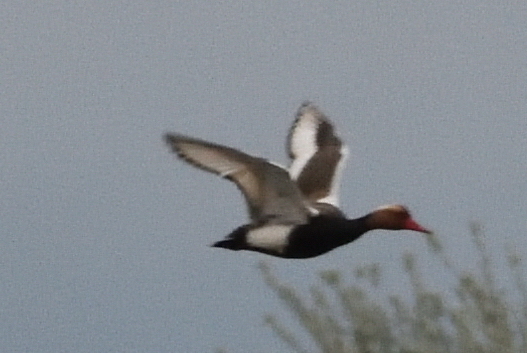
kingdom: Animalia
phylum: Chordata
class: Aves
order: Anseriformes
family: Anatidae
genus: Netta
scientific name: Netta rufina
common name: Red-crested pochard
